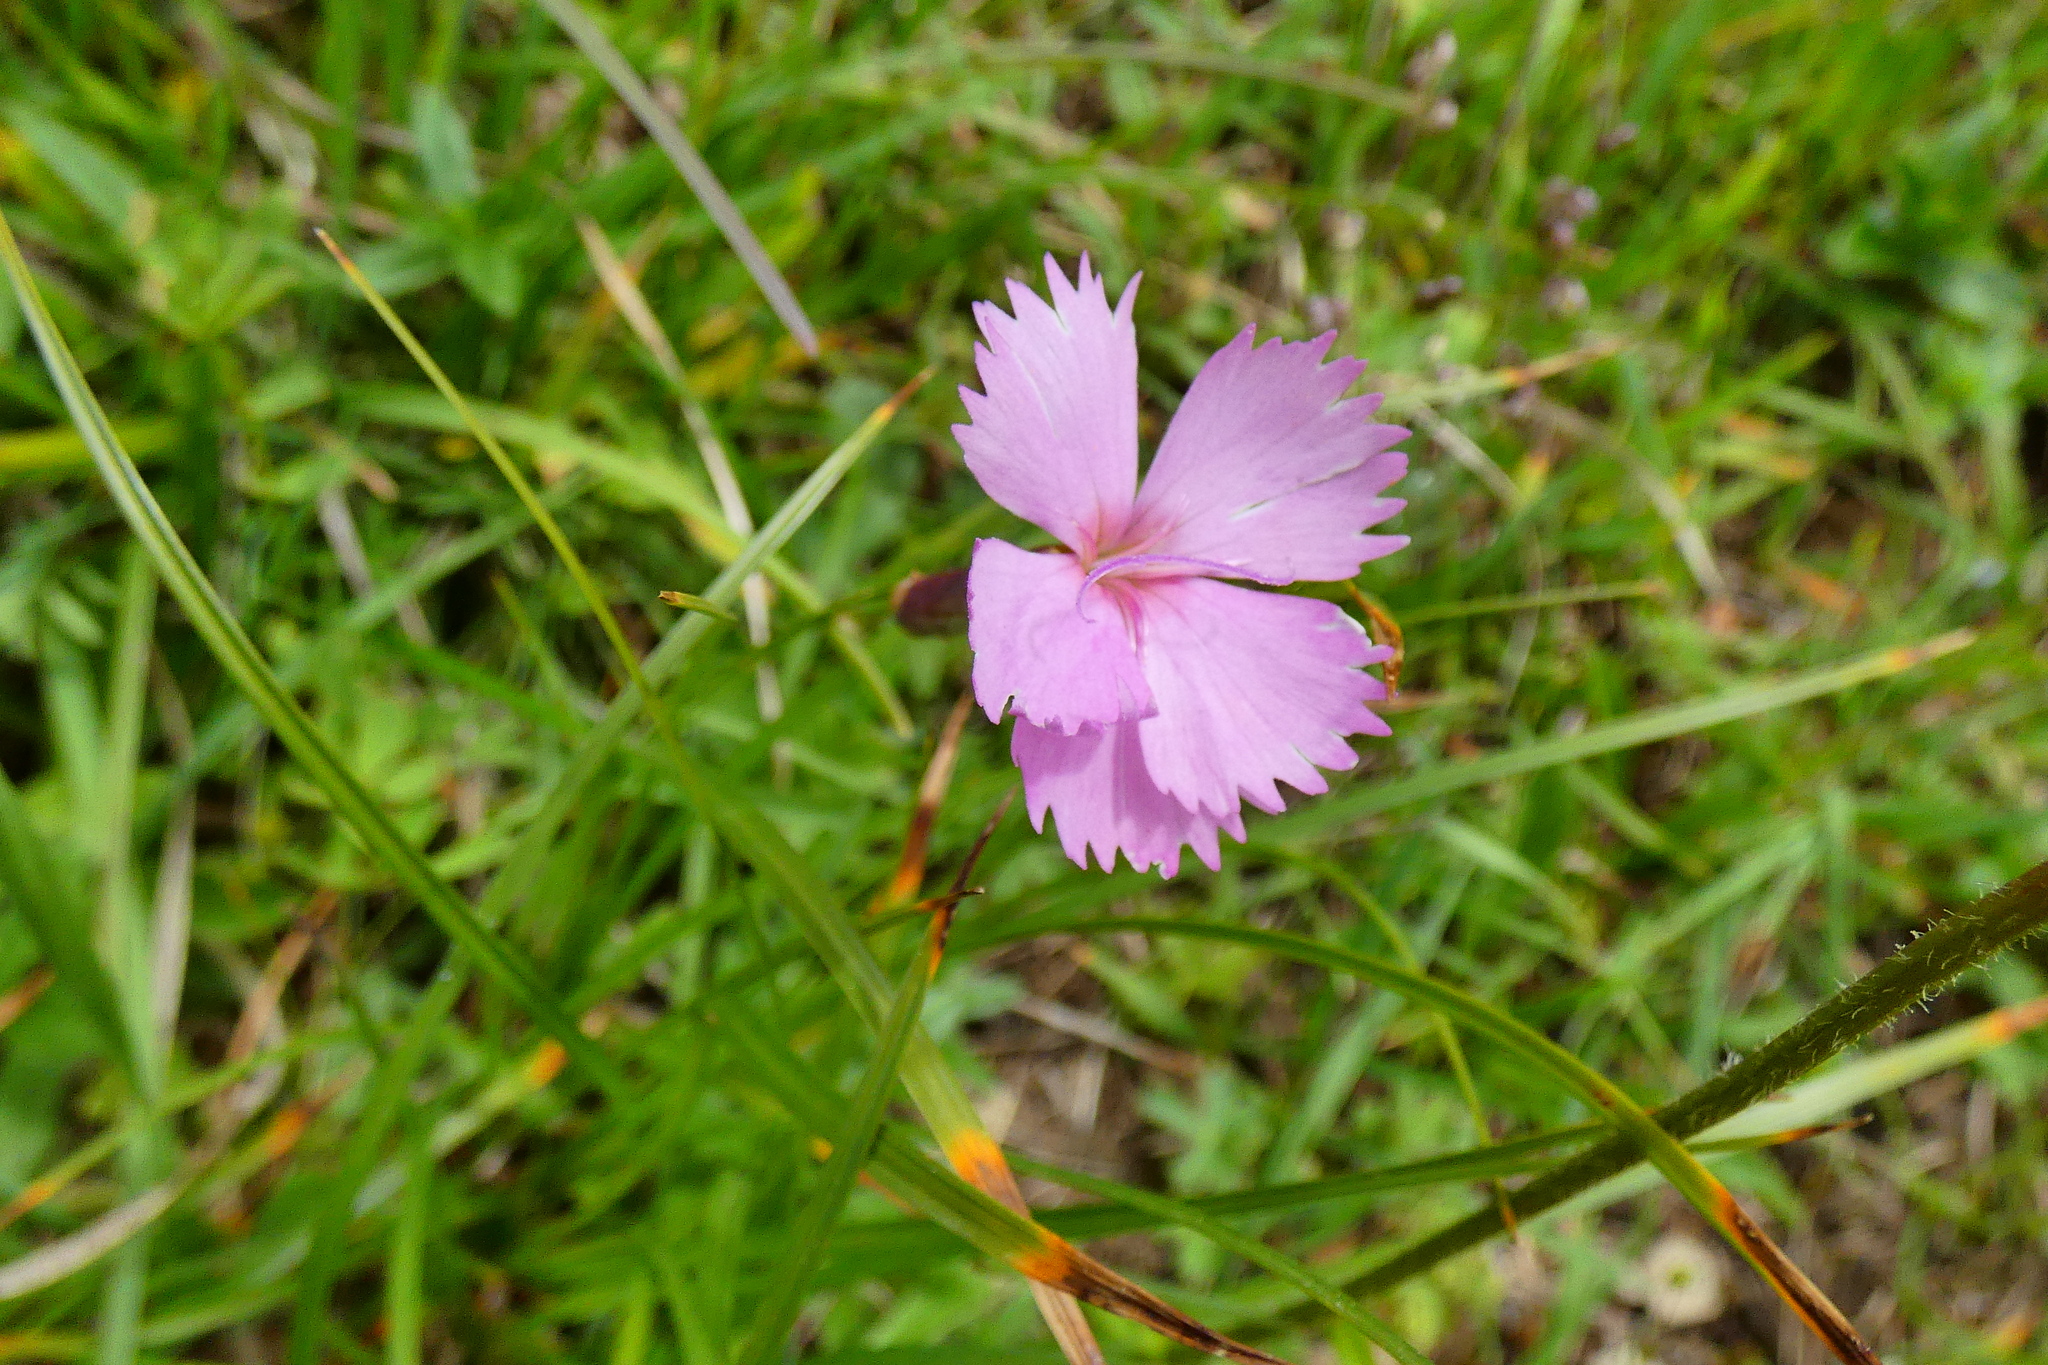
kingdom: Plantae
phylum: Tracheophyta
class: Magnoliopsida
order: Caryophyllales
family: Caryophyllaceae
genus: Dianthus
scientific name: Dianthus sylvestris
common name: Wood pink
